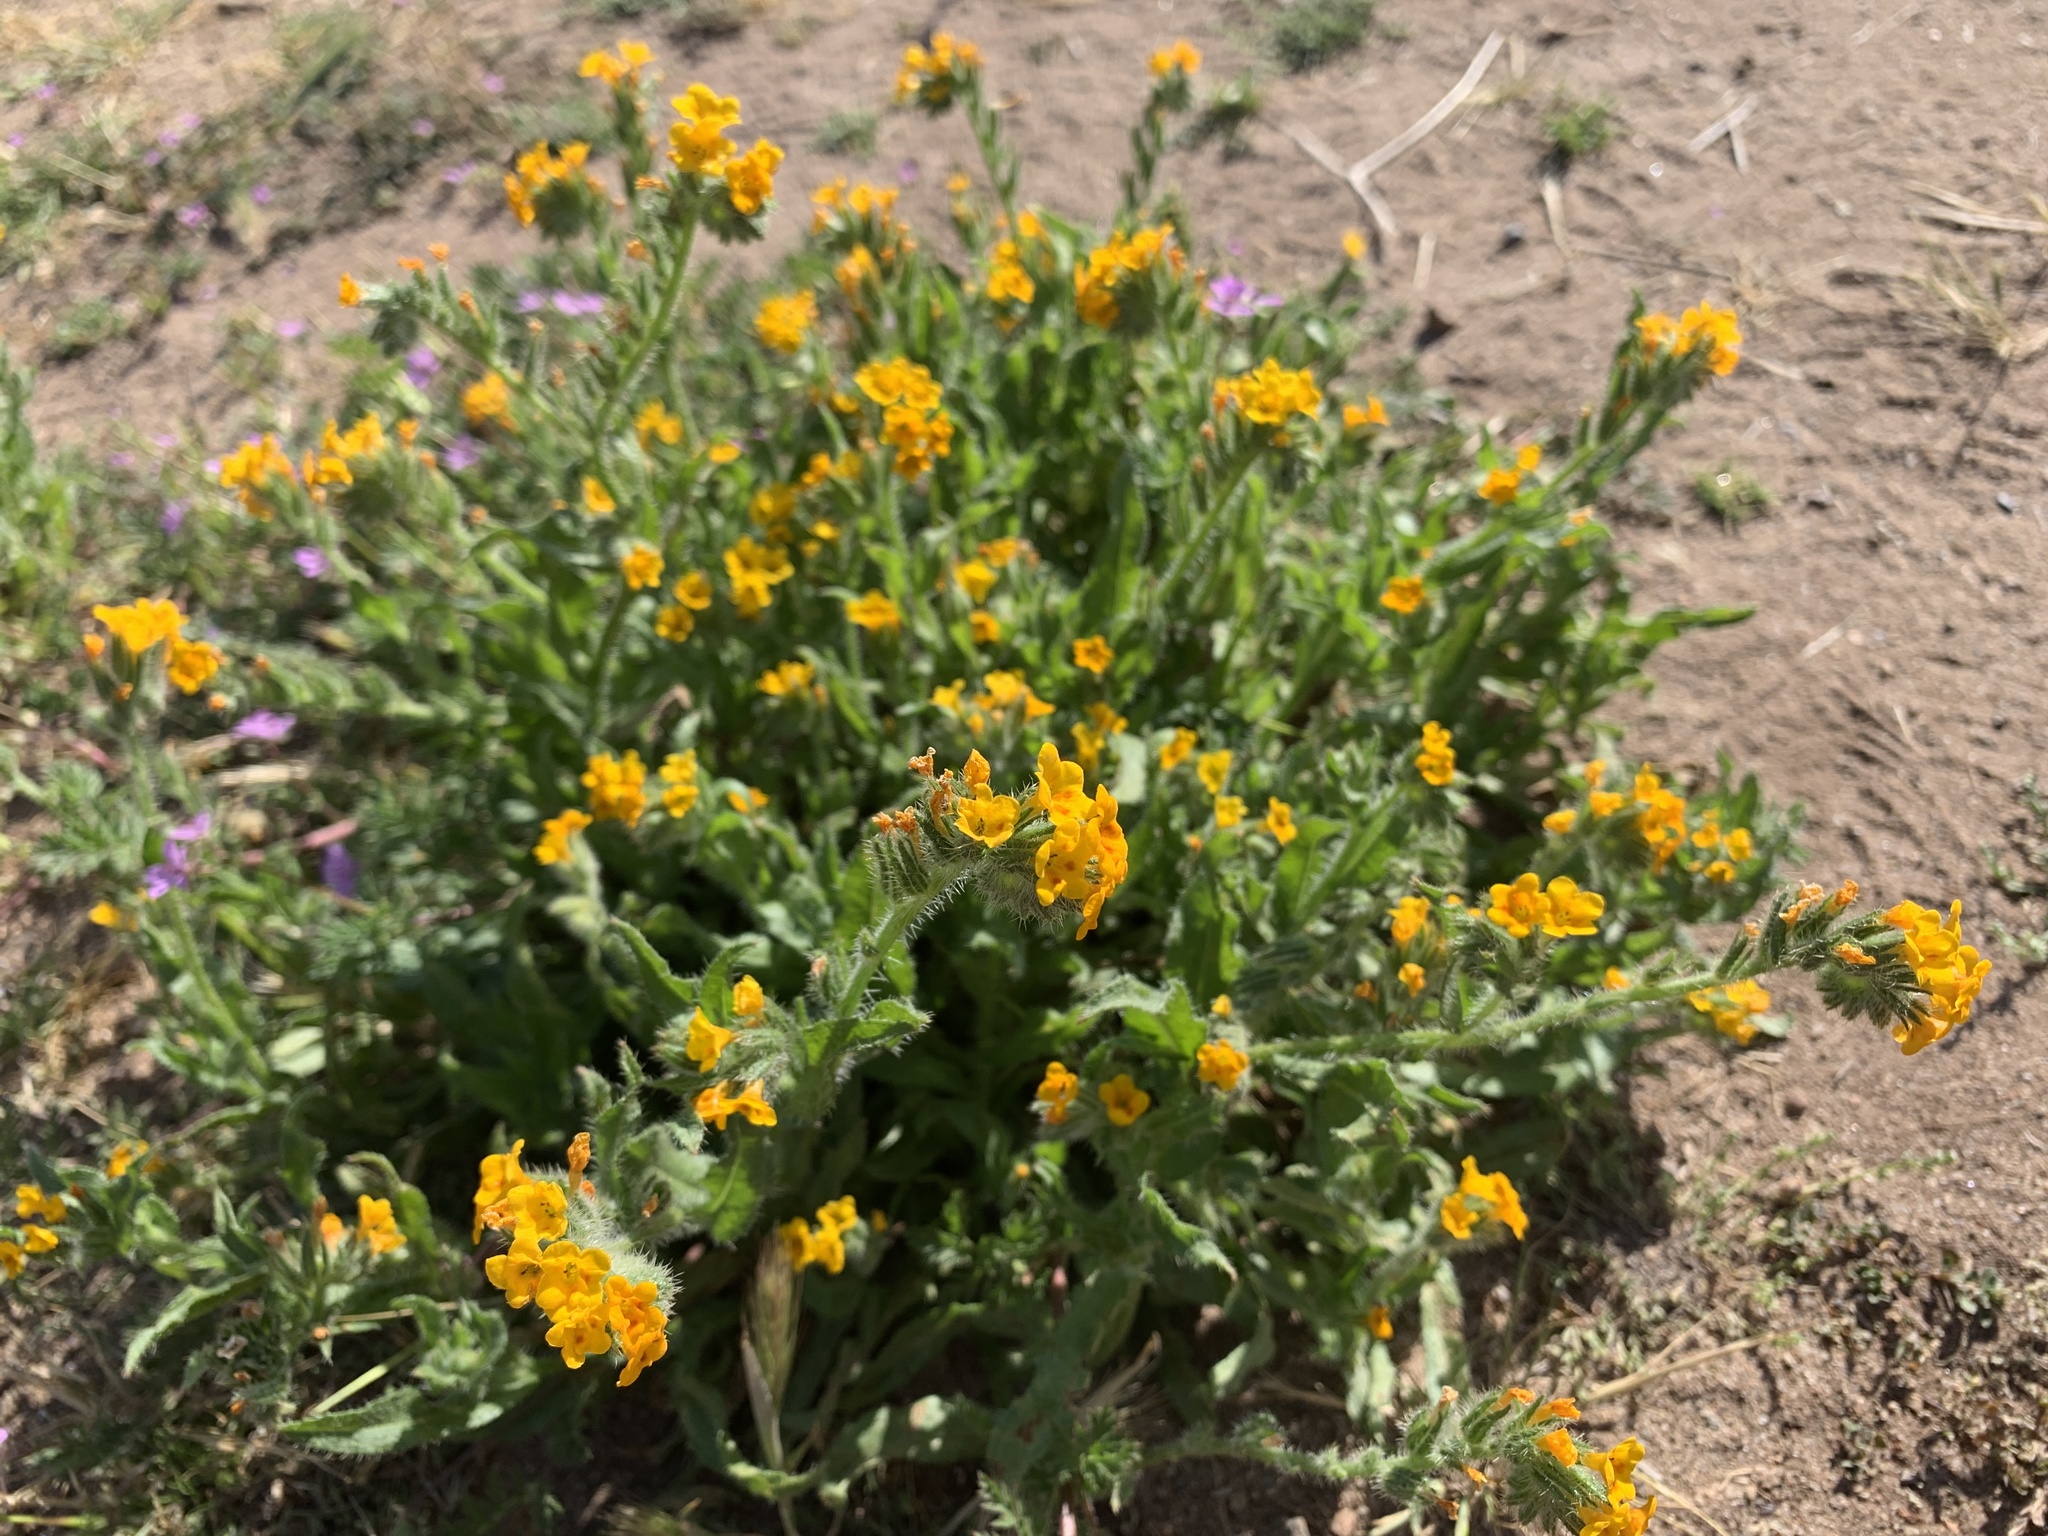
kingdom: Plantae
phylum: Tracheophyta
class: Magnoliopsida
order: Boraginales
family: Boraginaceae
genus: Amsinckia
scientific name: Amsinckia menziesii
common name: Menzies' fiddleneck
